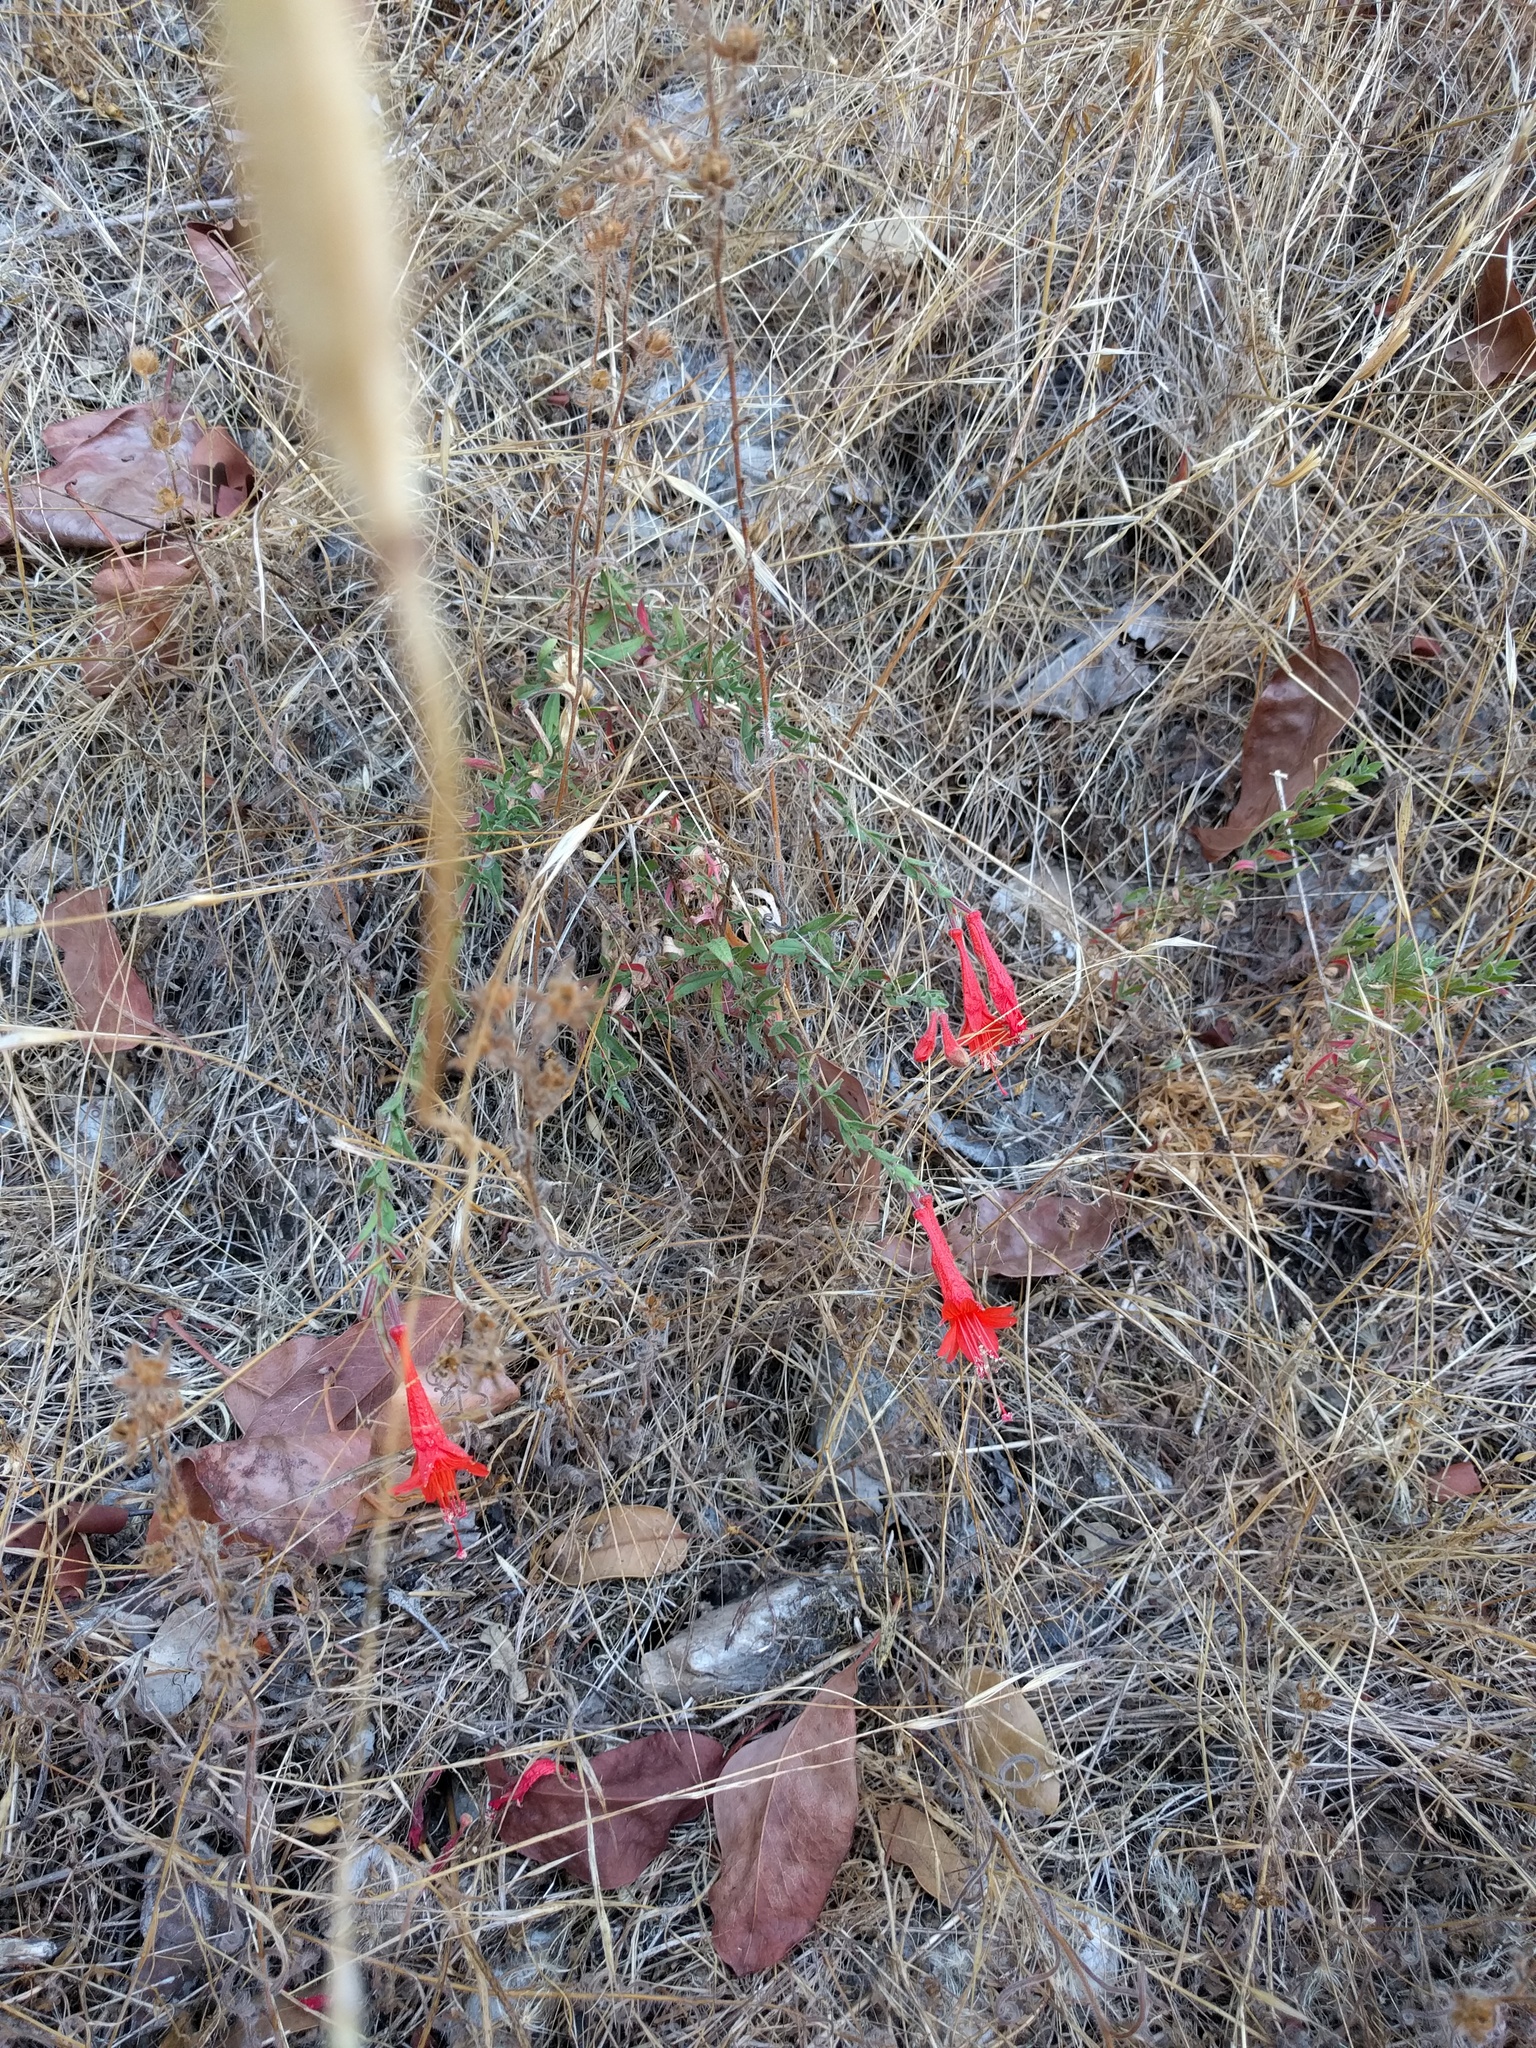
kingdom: Plantae
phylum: Tracheophyta
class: Magnoliopsida
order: Myrtales
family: Onagraceae
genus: Epilobium
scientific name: Epilobium canum
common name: California-fuchsia
